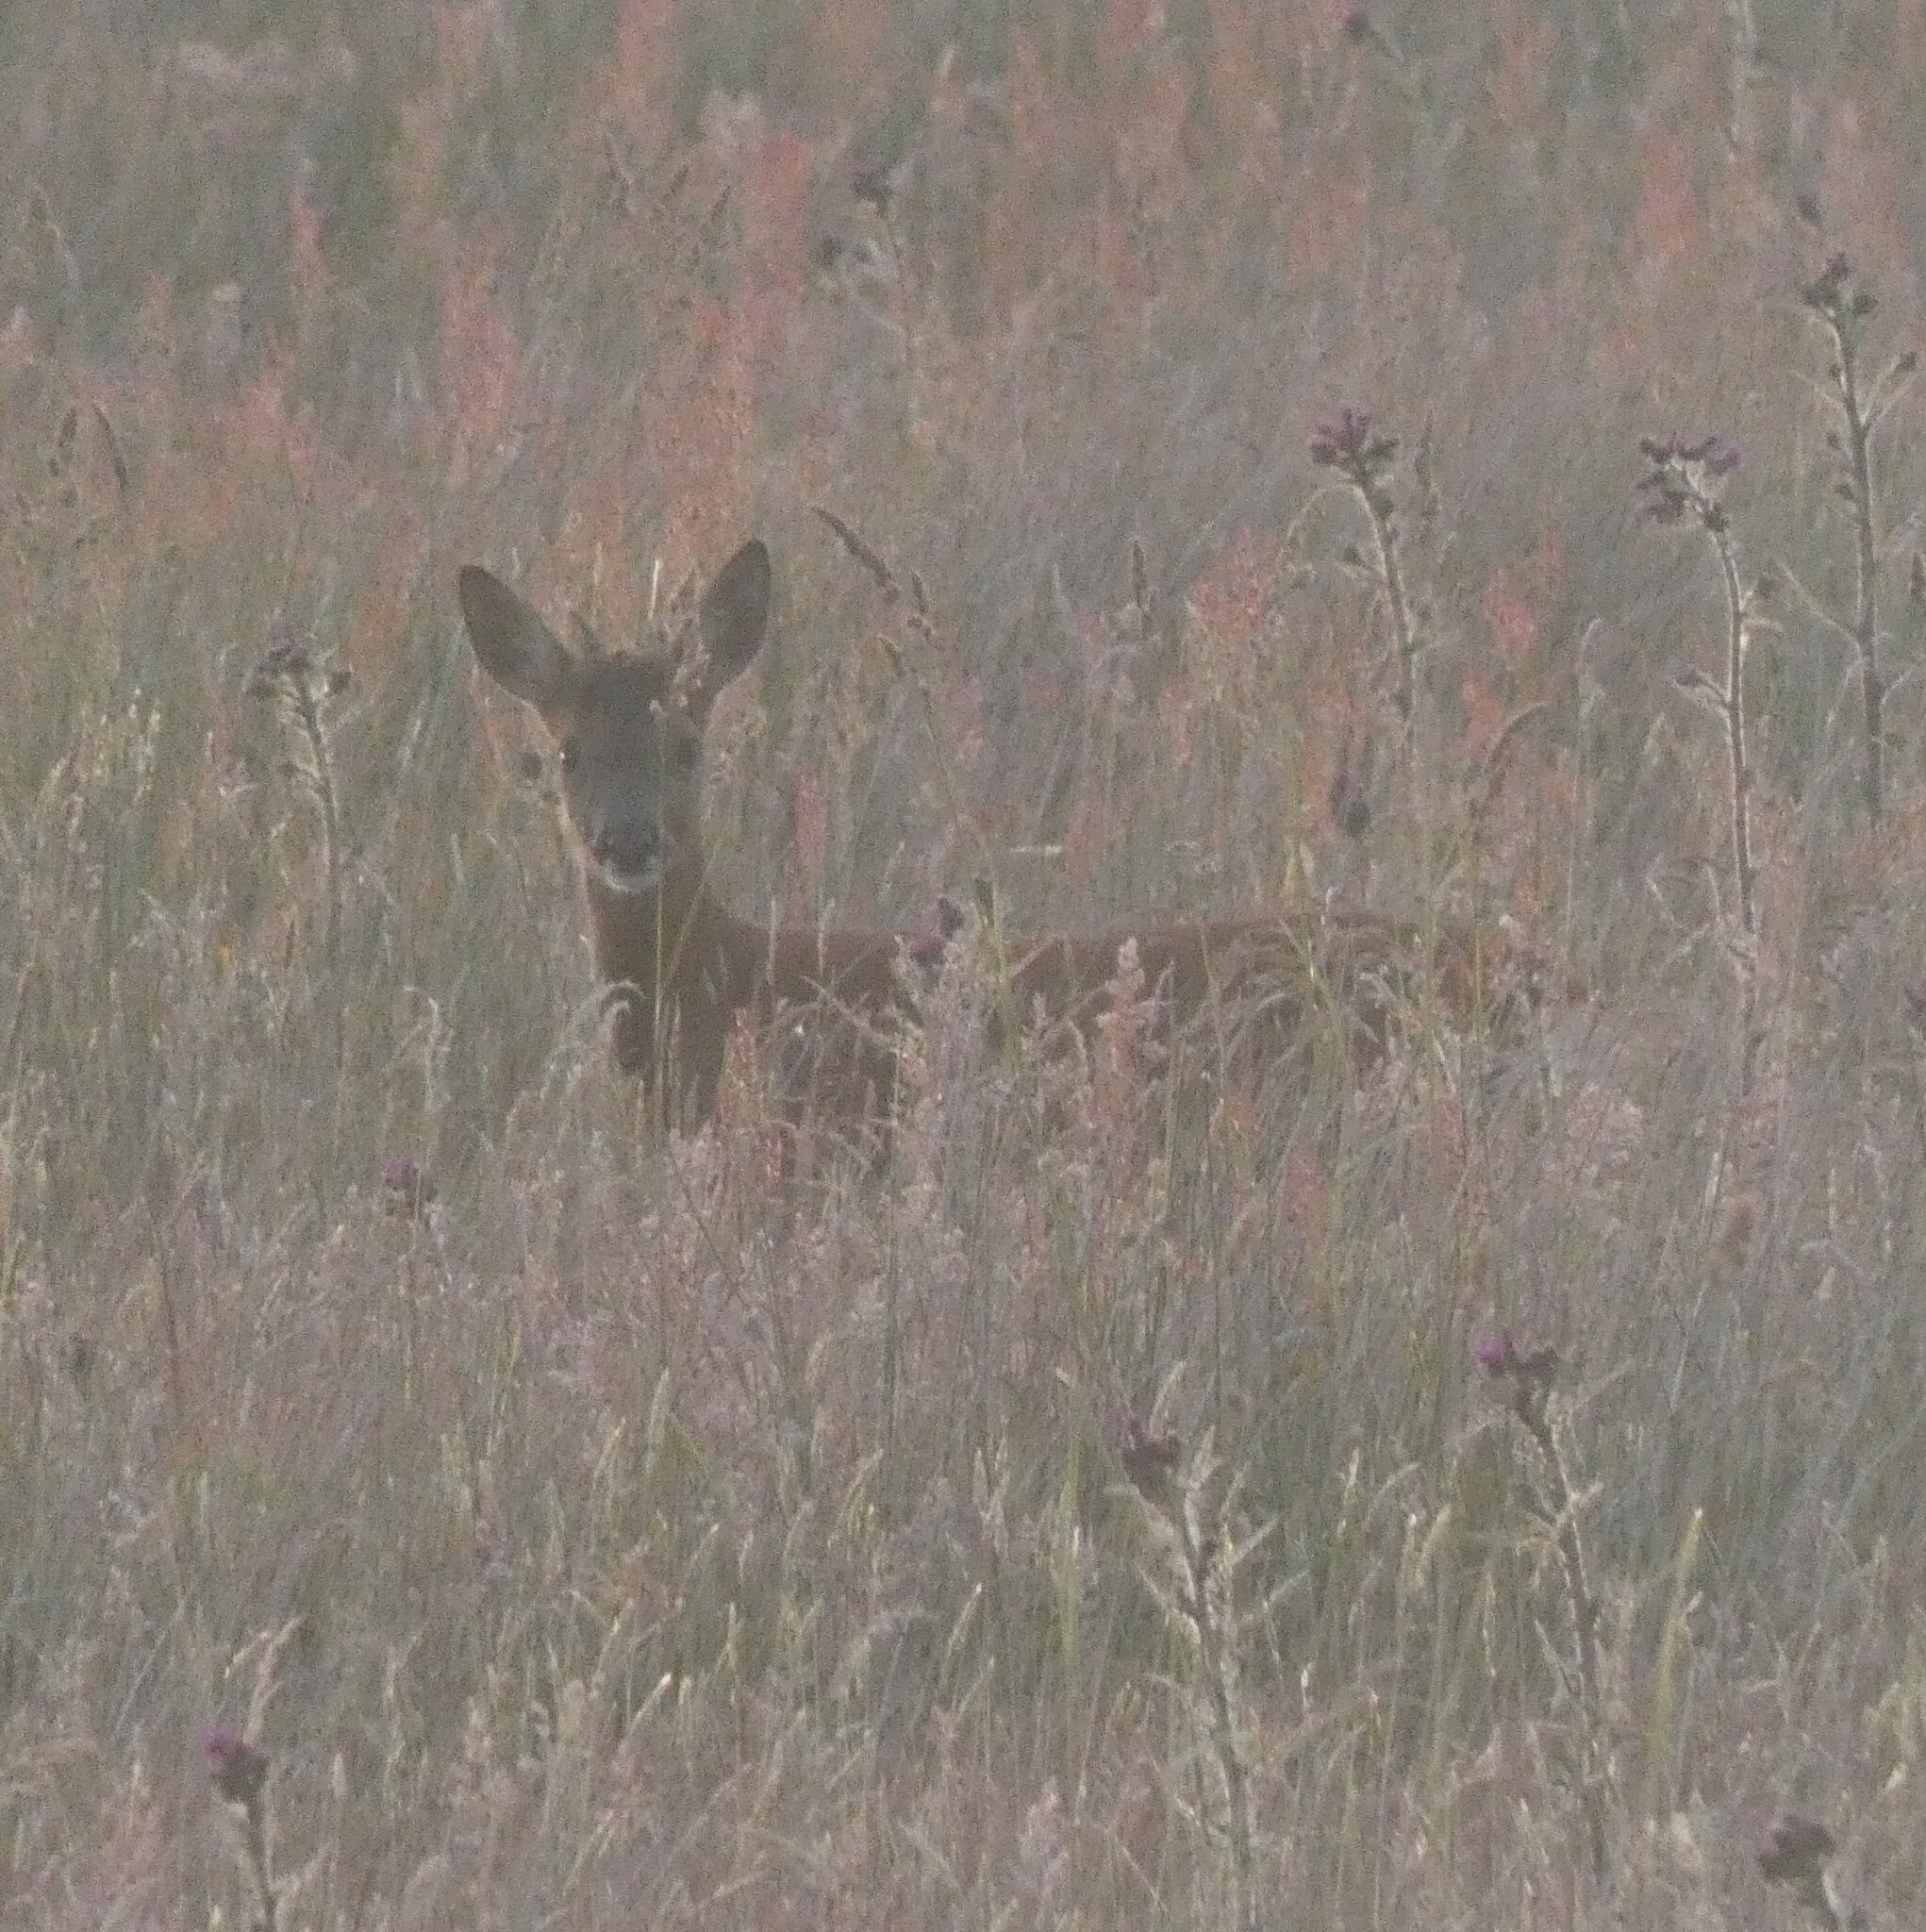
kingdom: Animalia
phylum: Chordata
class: Mammalia
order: Artiodactyla
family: Cervidae
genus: Capreolus
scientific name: Capreolus capreolus
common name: Western roe deer
